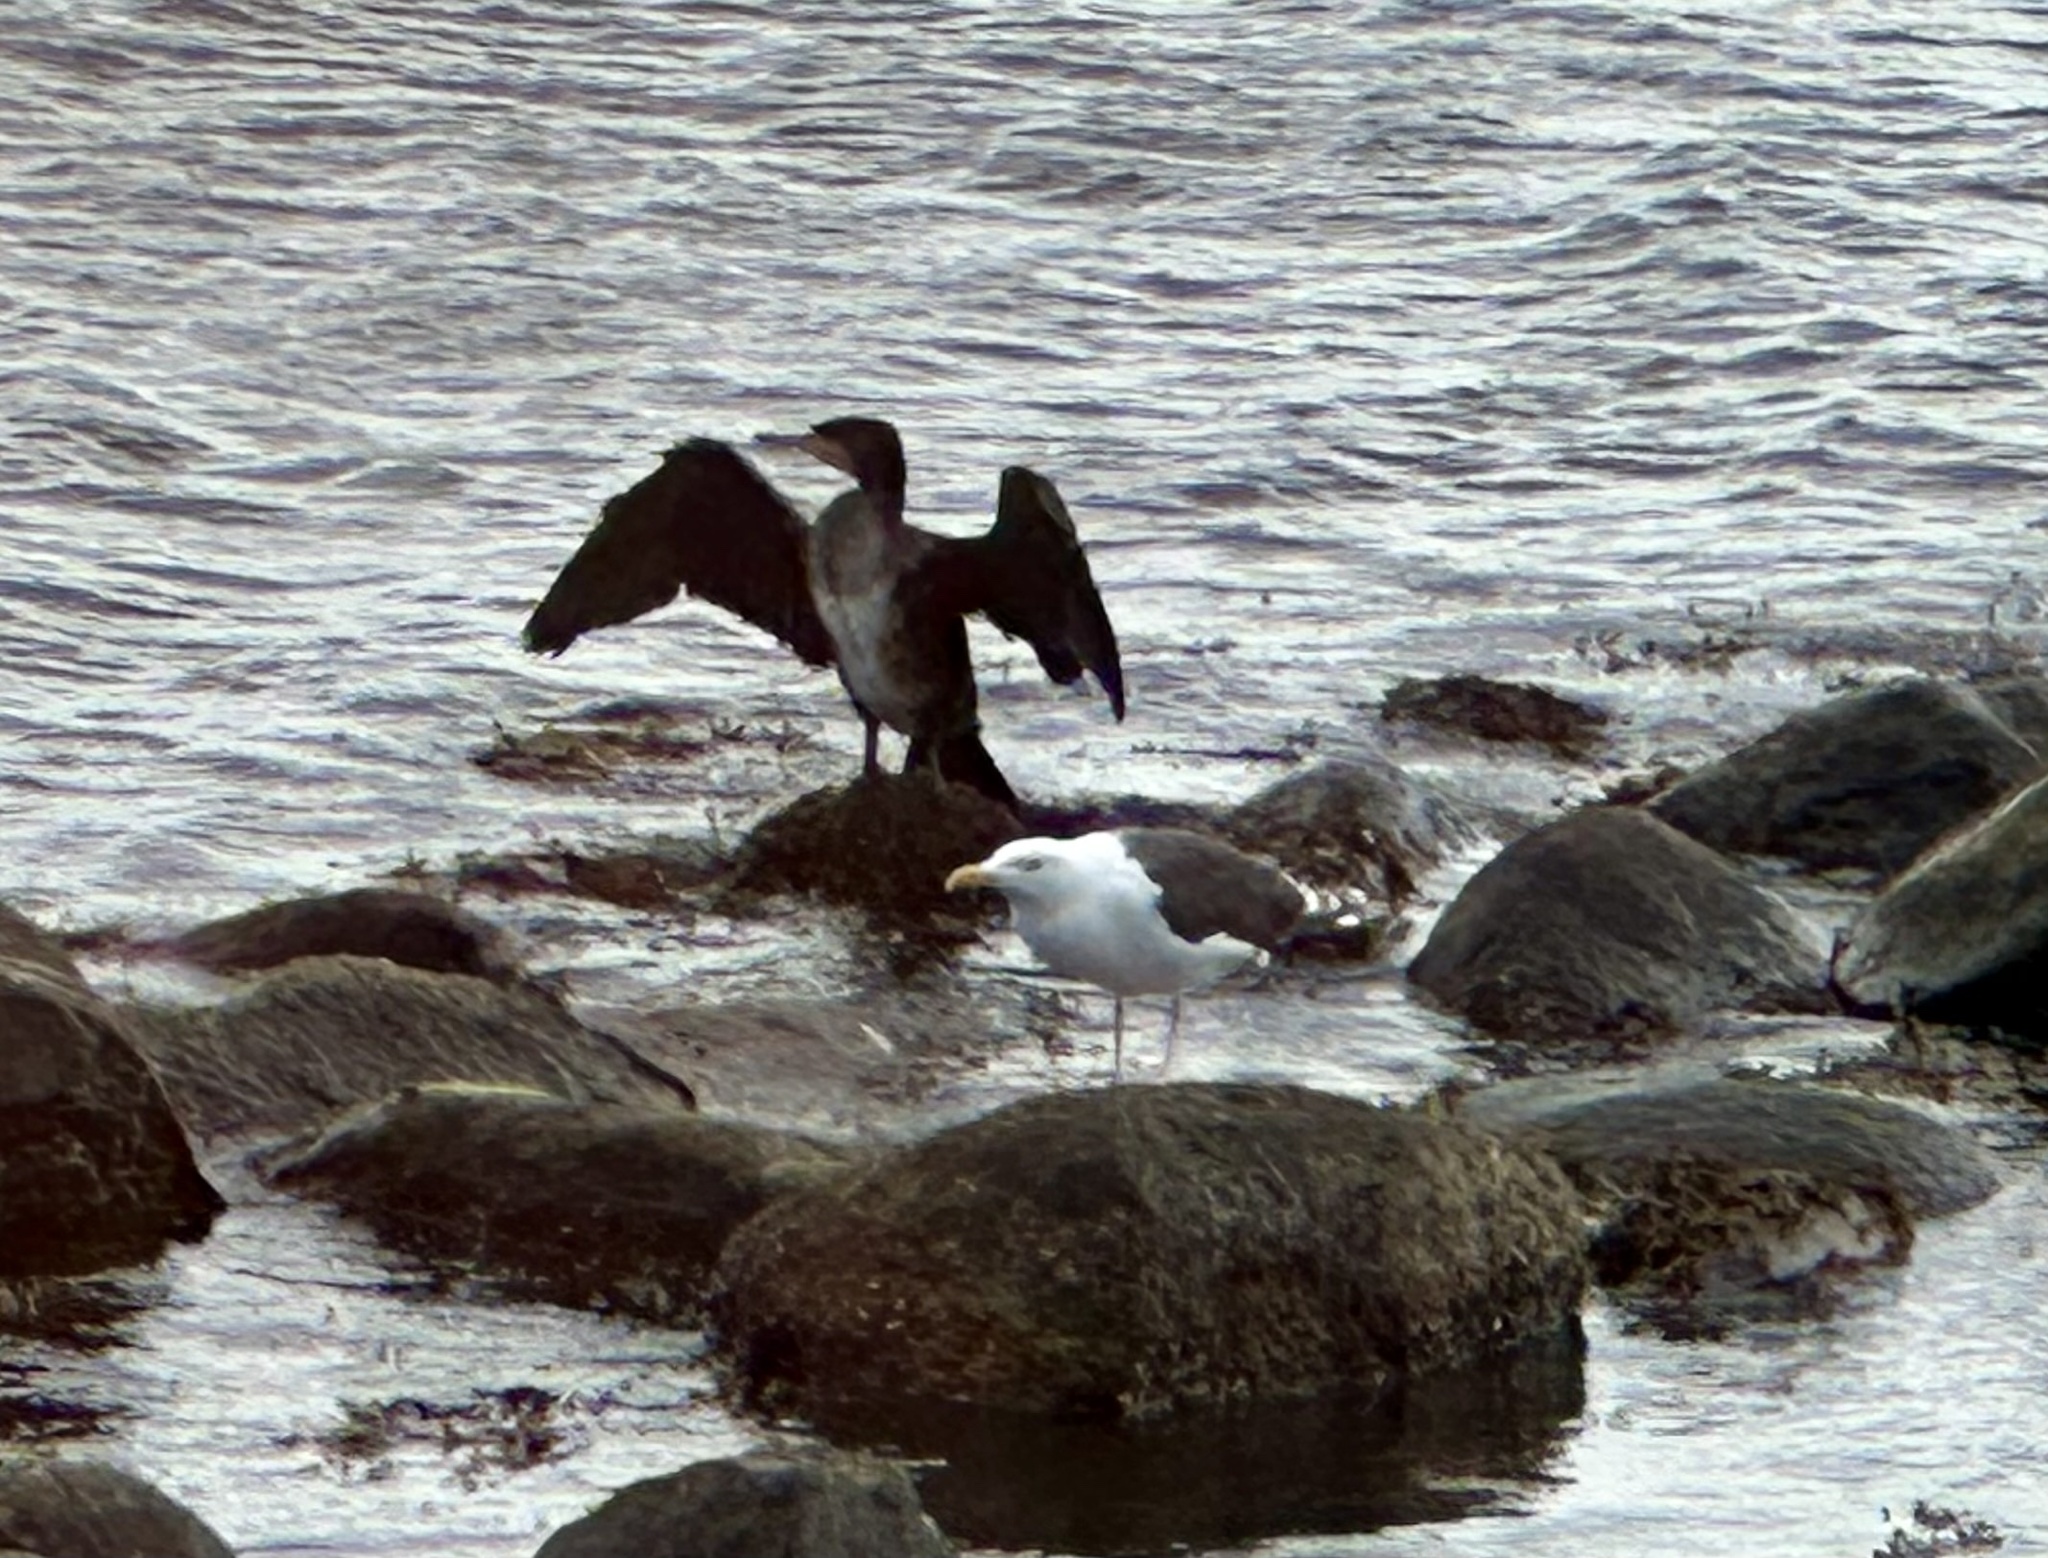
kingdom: Animalia
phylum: Chordata
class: Aves
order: Suliformes
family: Phalacrocoracidae
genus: Phalacrocorax
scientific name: Phalacrocorax carbo
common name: Great cormorant
